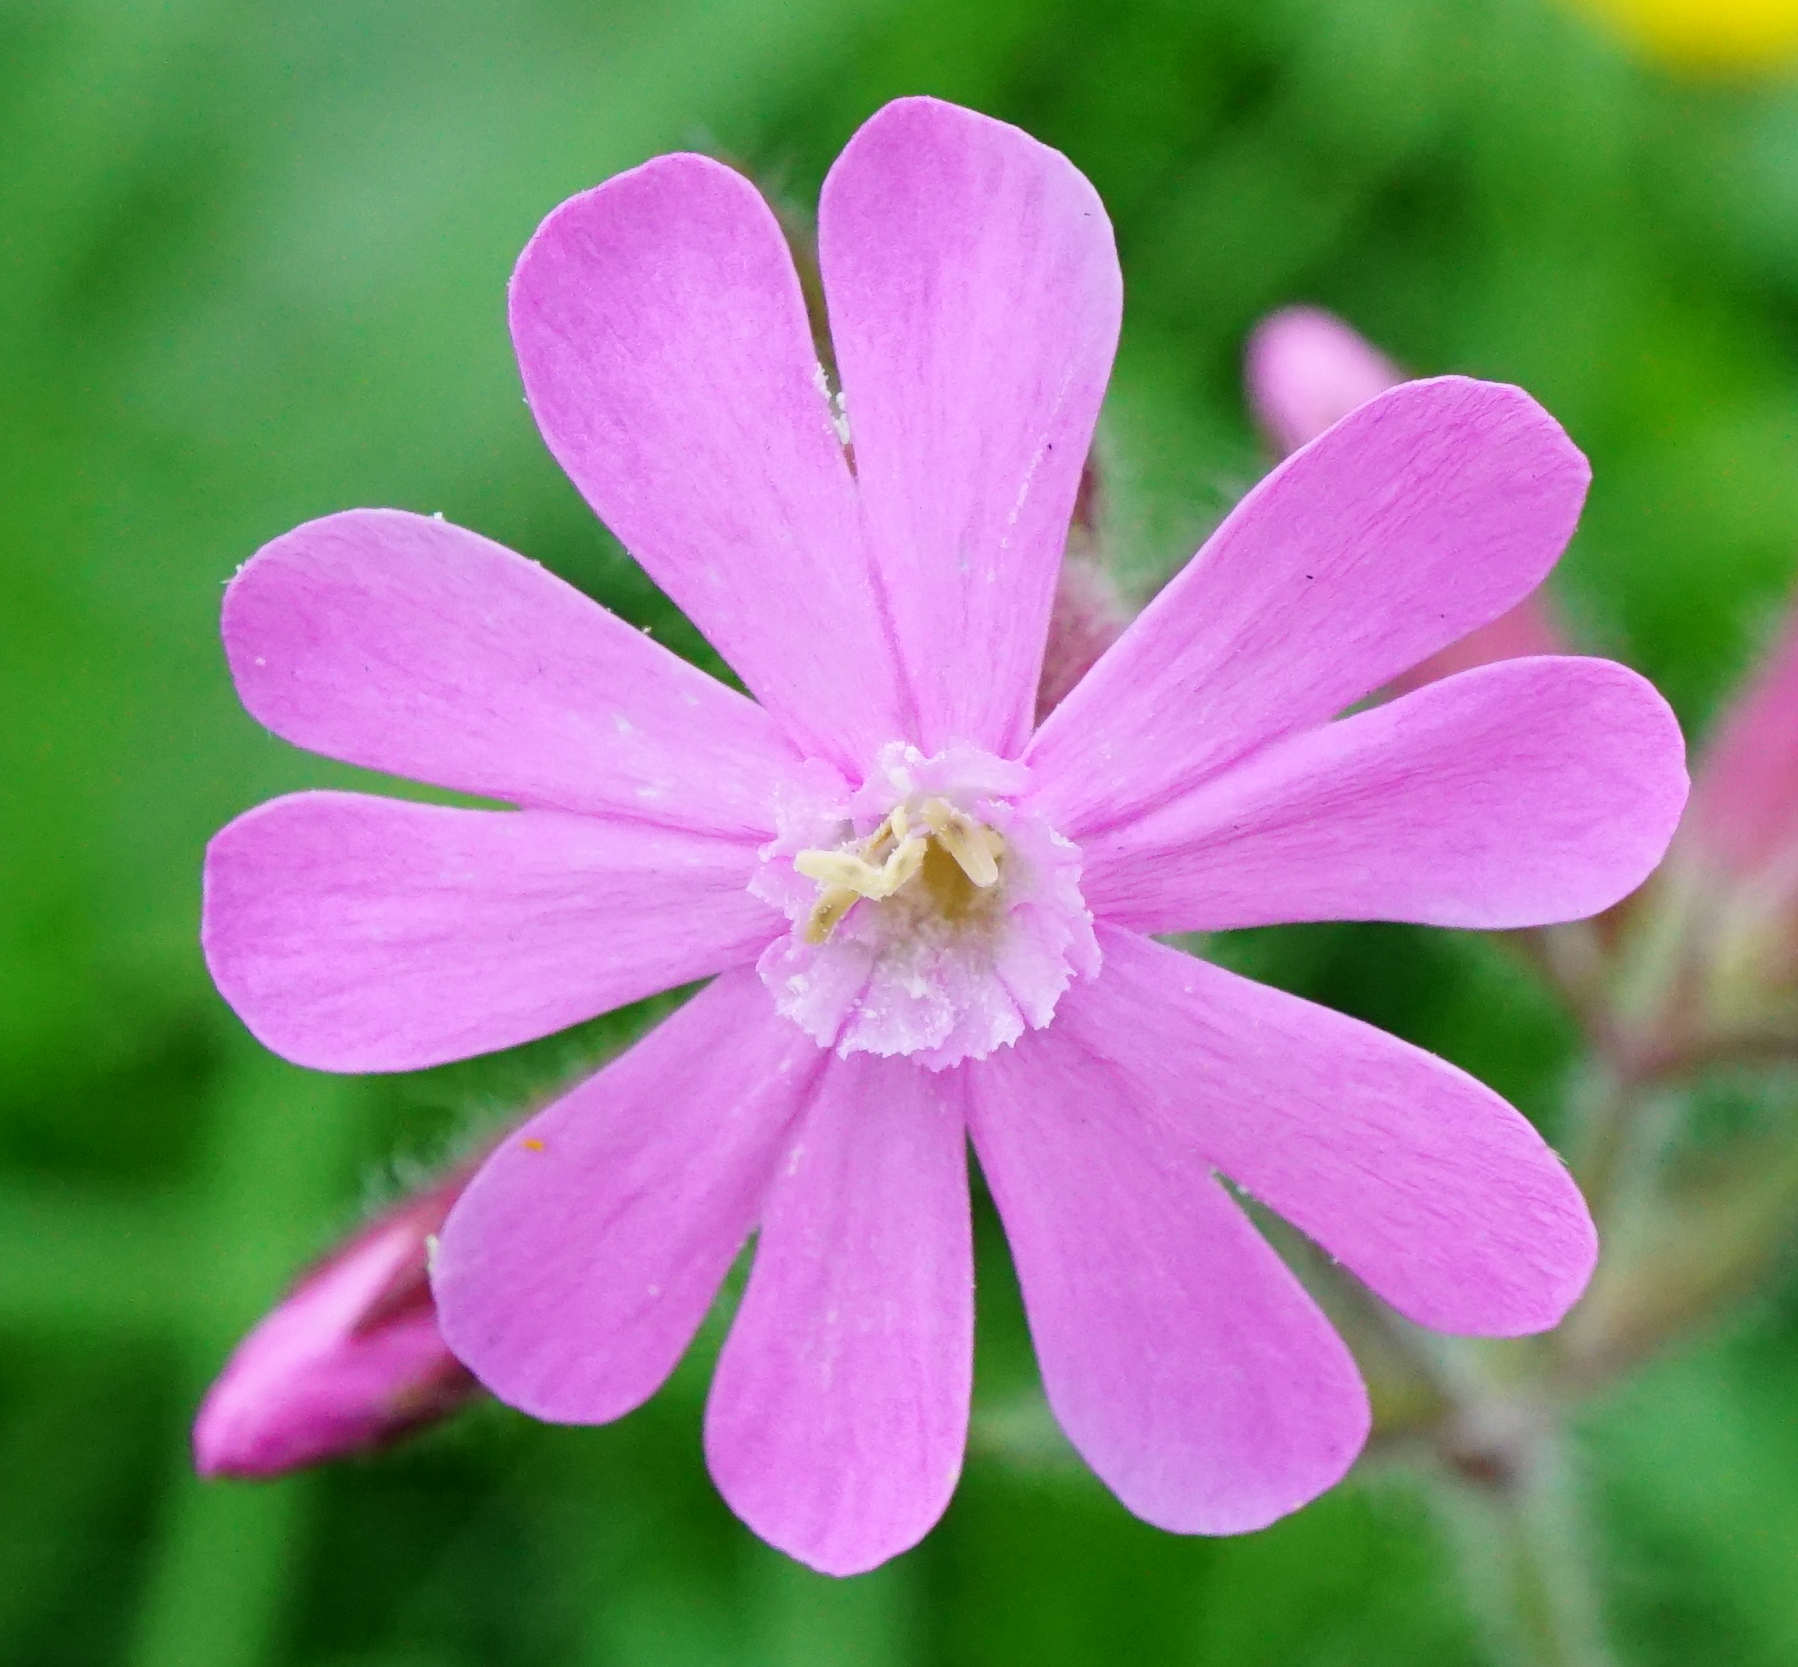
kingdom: Plantae
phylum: Tracheophyta
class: Magnoliopsida
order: Caryophyllales
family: Caryophyllaceae
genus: Silene
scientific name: Silene dioica
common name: Red campion
